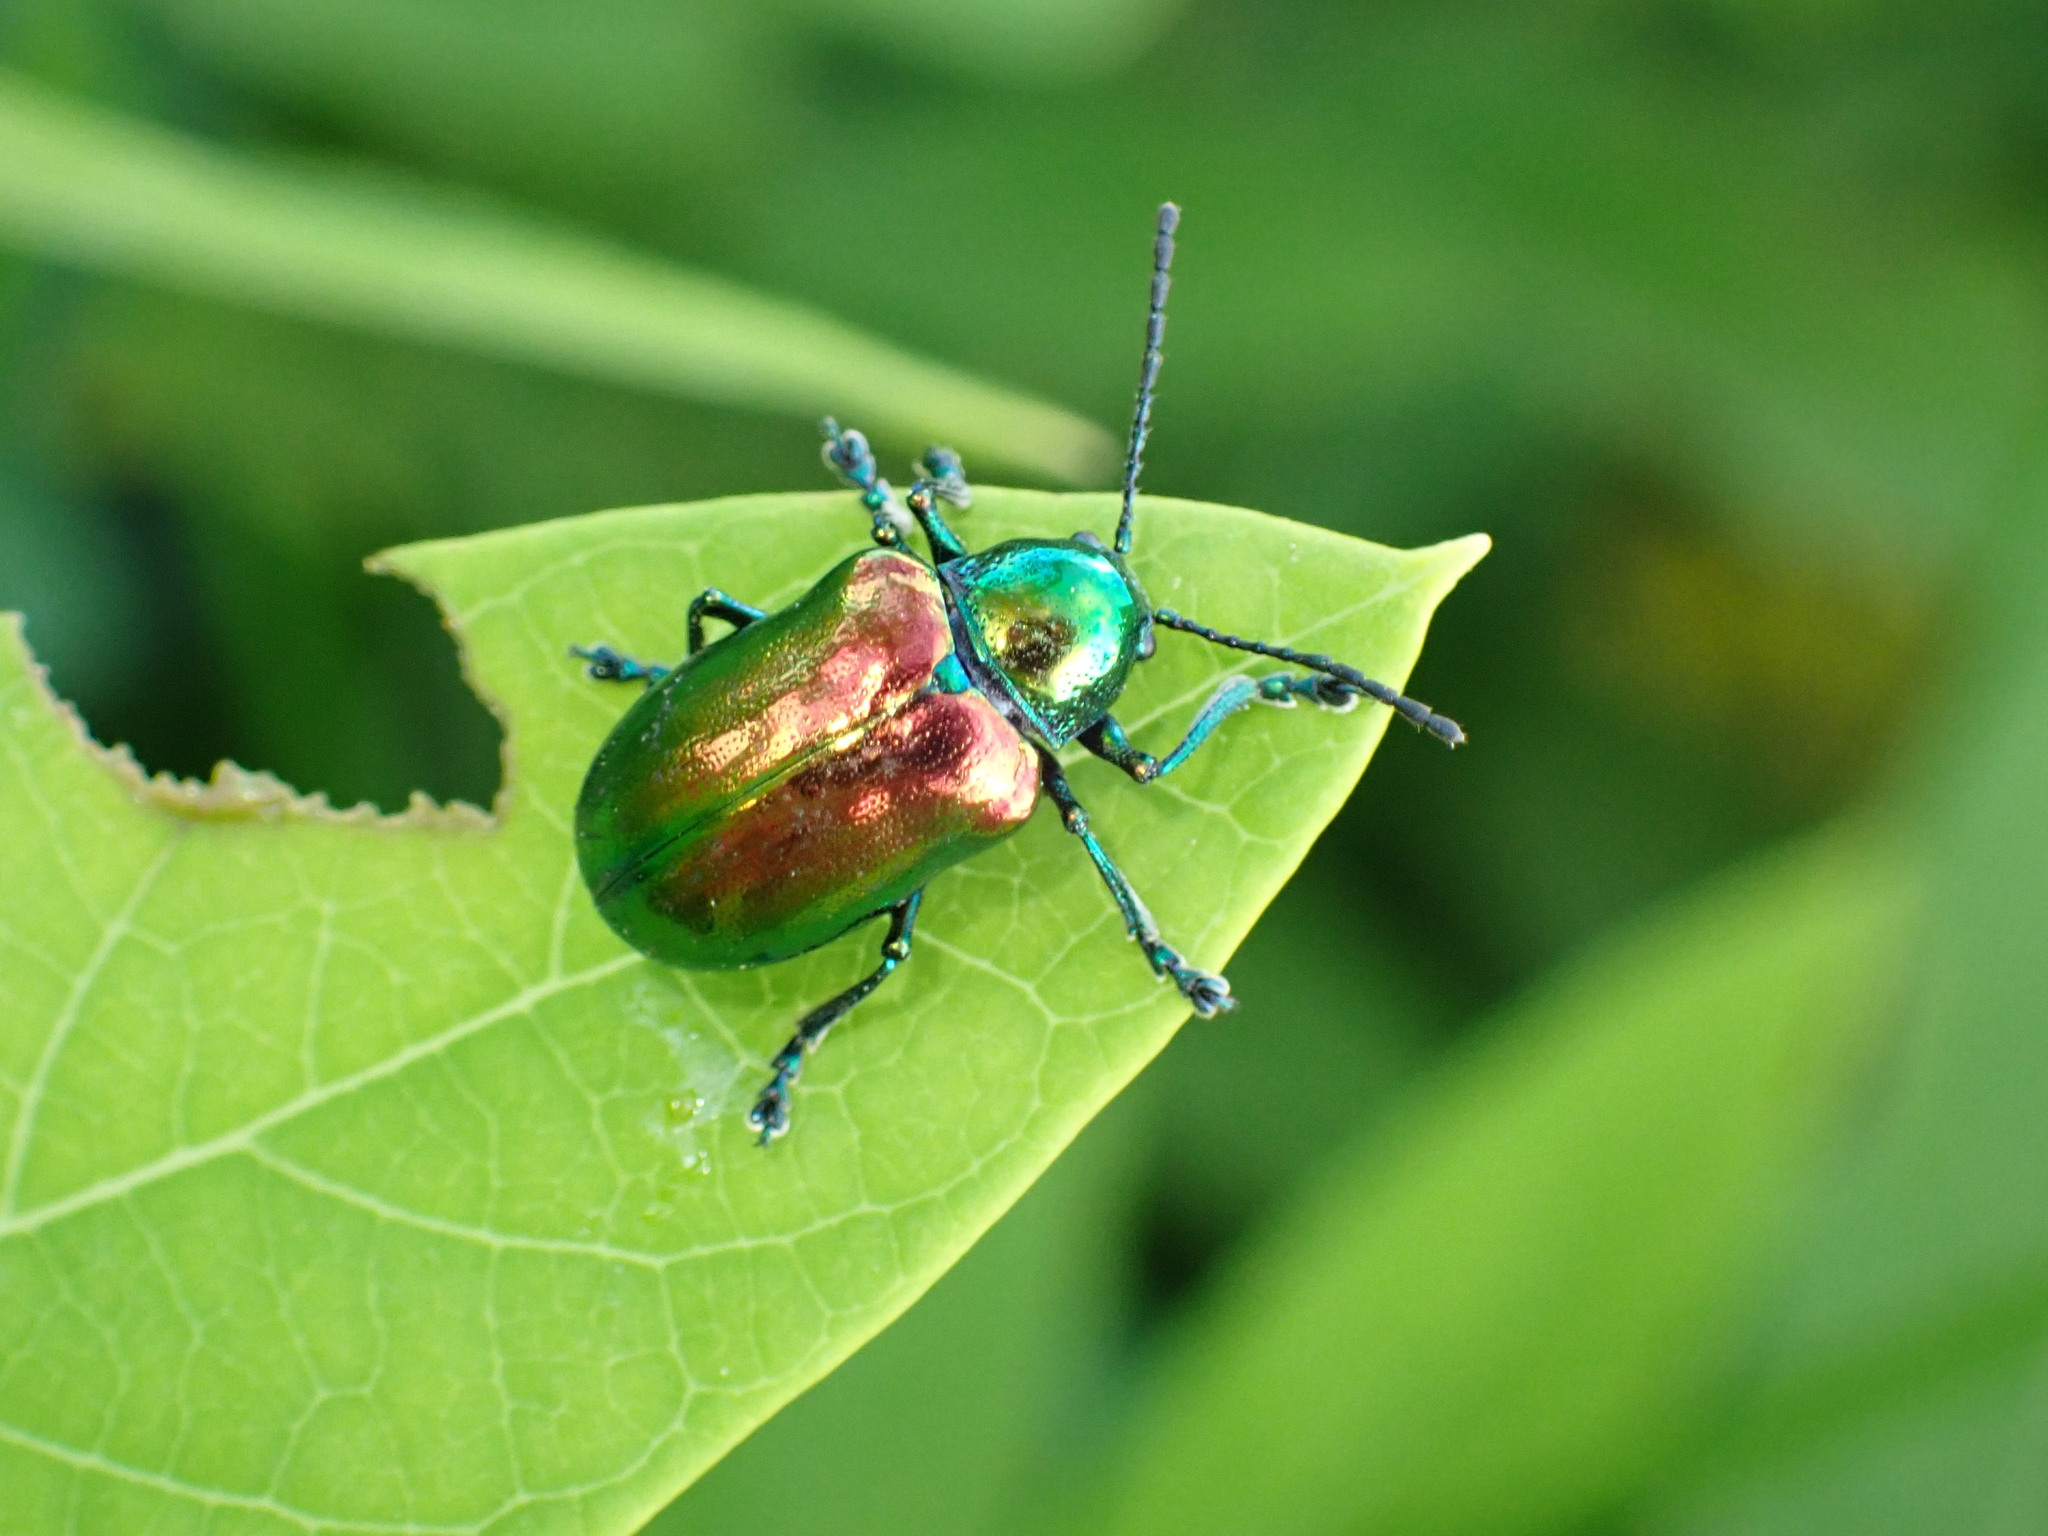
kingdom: Animalia
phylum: Arthropoda
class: Insecta
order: Coleoptera
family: Chrysomelidae
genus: Chrysochus
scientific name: Chrysochus auratus
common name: Dogbane leaf beetle
